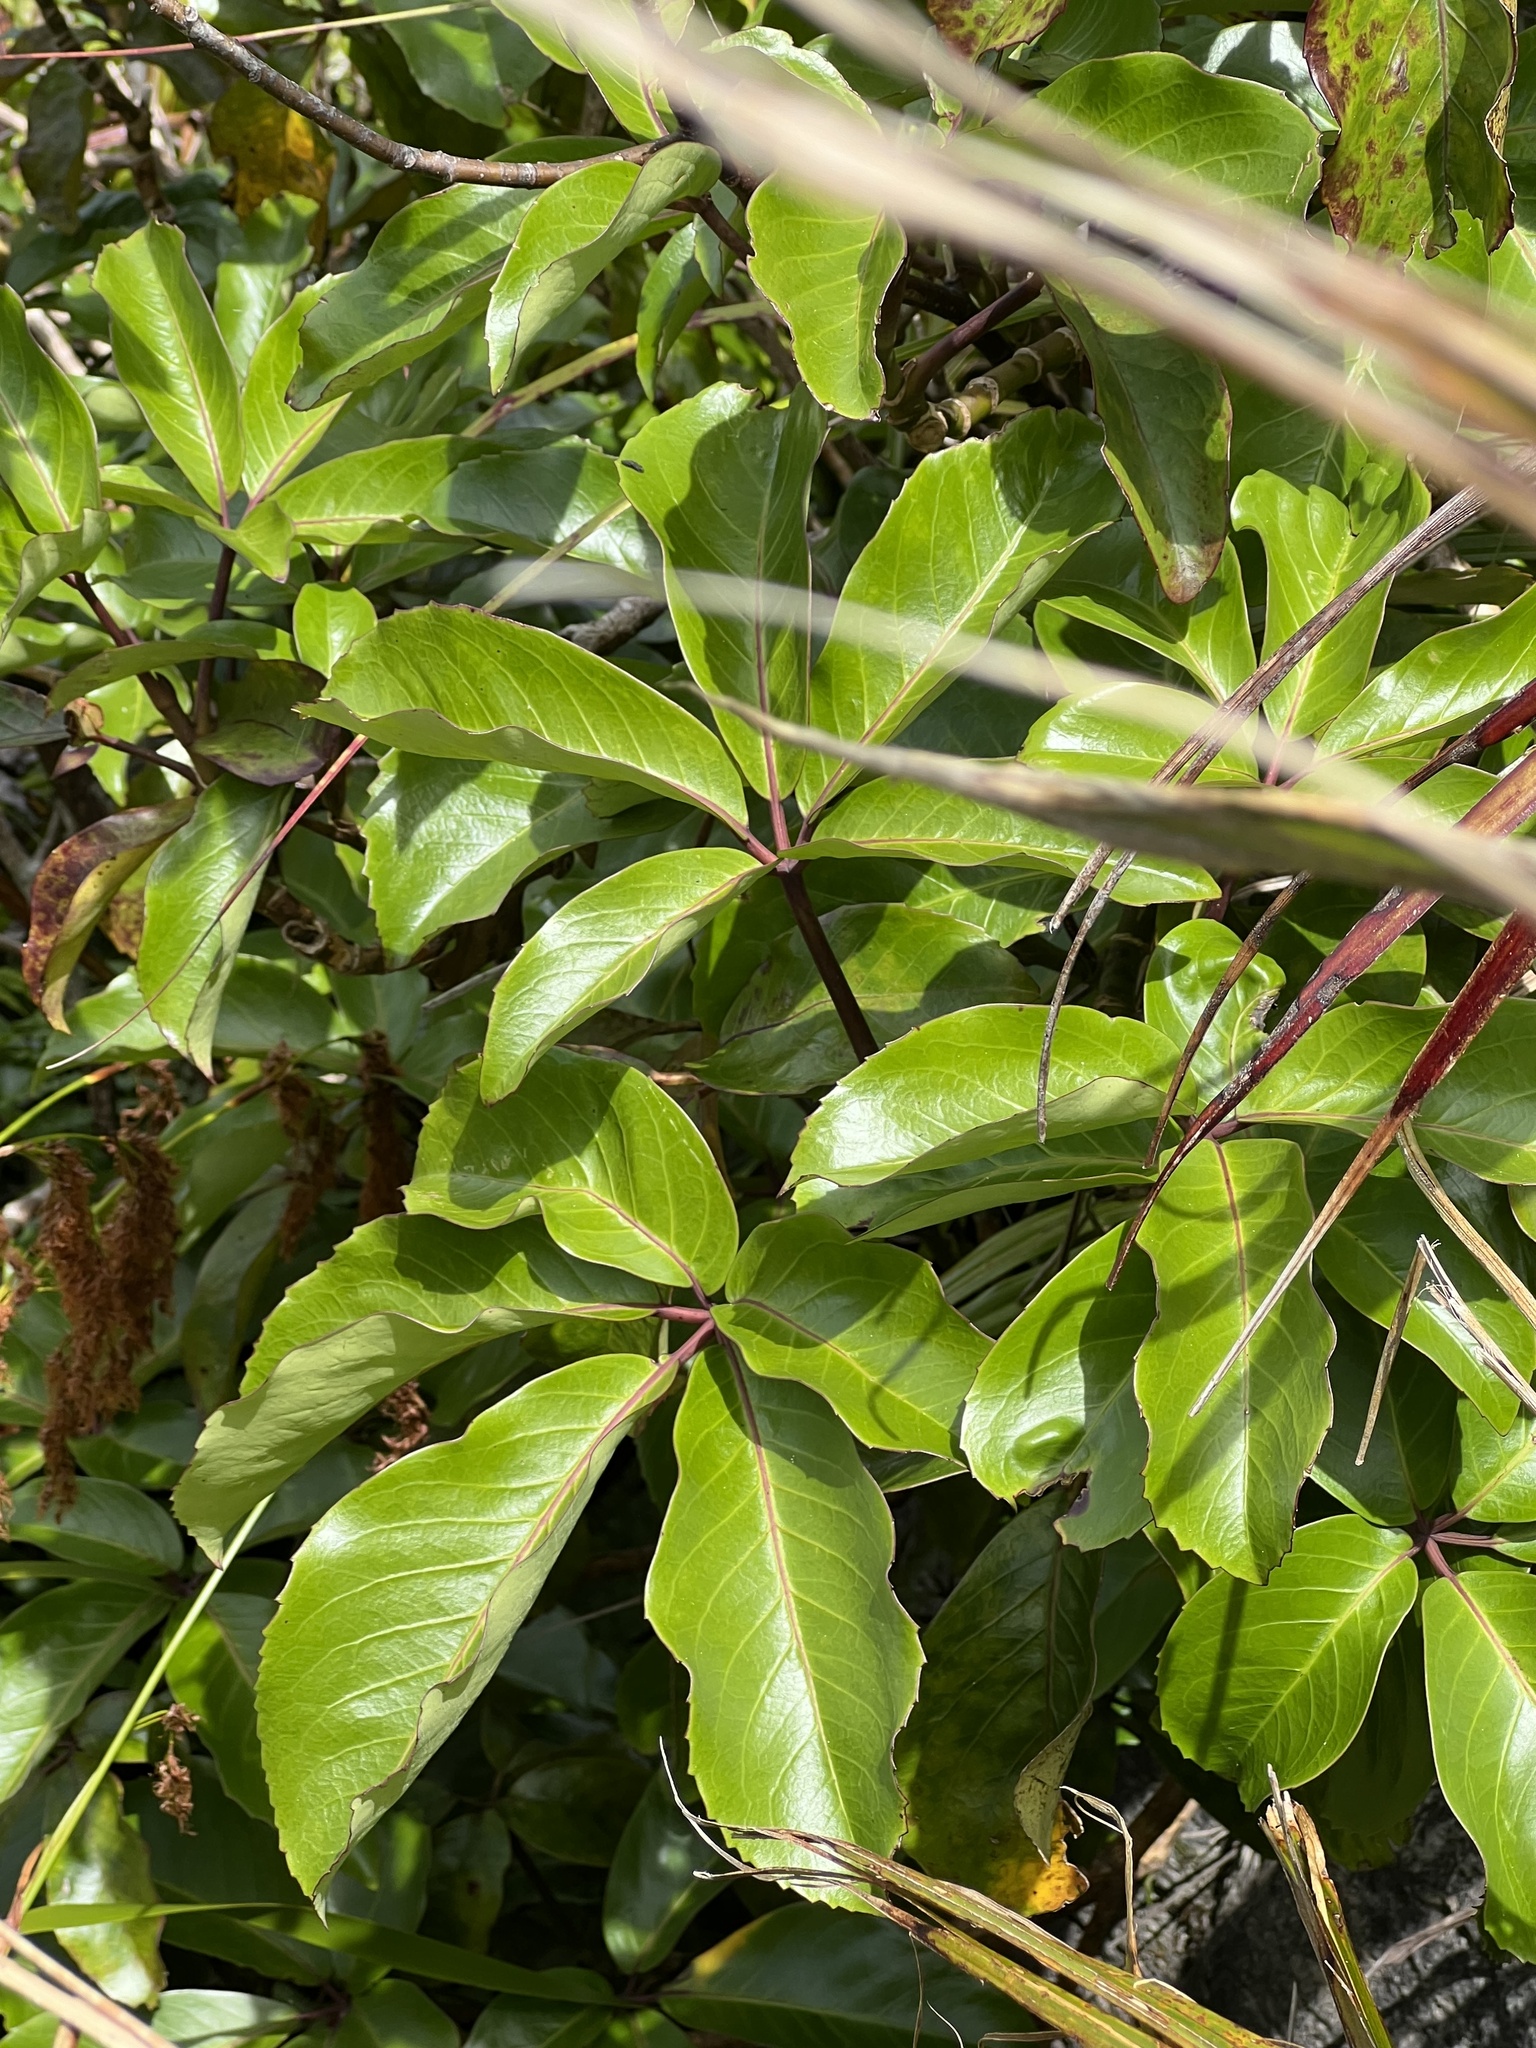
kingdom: Plantae
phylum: Tracheophyta
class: Magnoliopsida
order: Apiales
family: Araliaceae
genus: Neopanax
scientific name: Neopanax laetus
